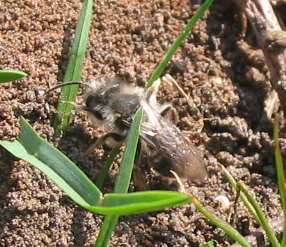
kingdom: Animalia
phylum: Arthropoda
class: Insecta
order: Hymenoptera
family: Andrenidae
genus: Andrena
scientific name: Andrena vaga
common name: Grey-backed mining bee
